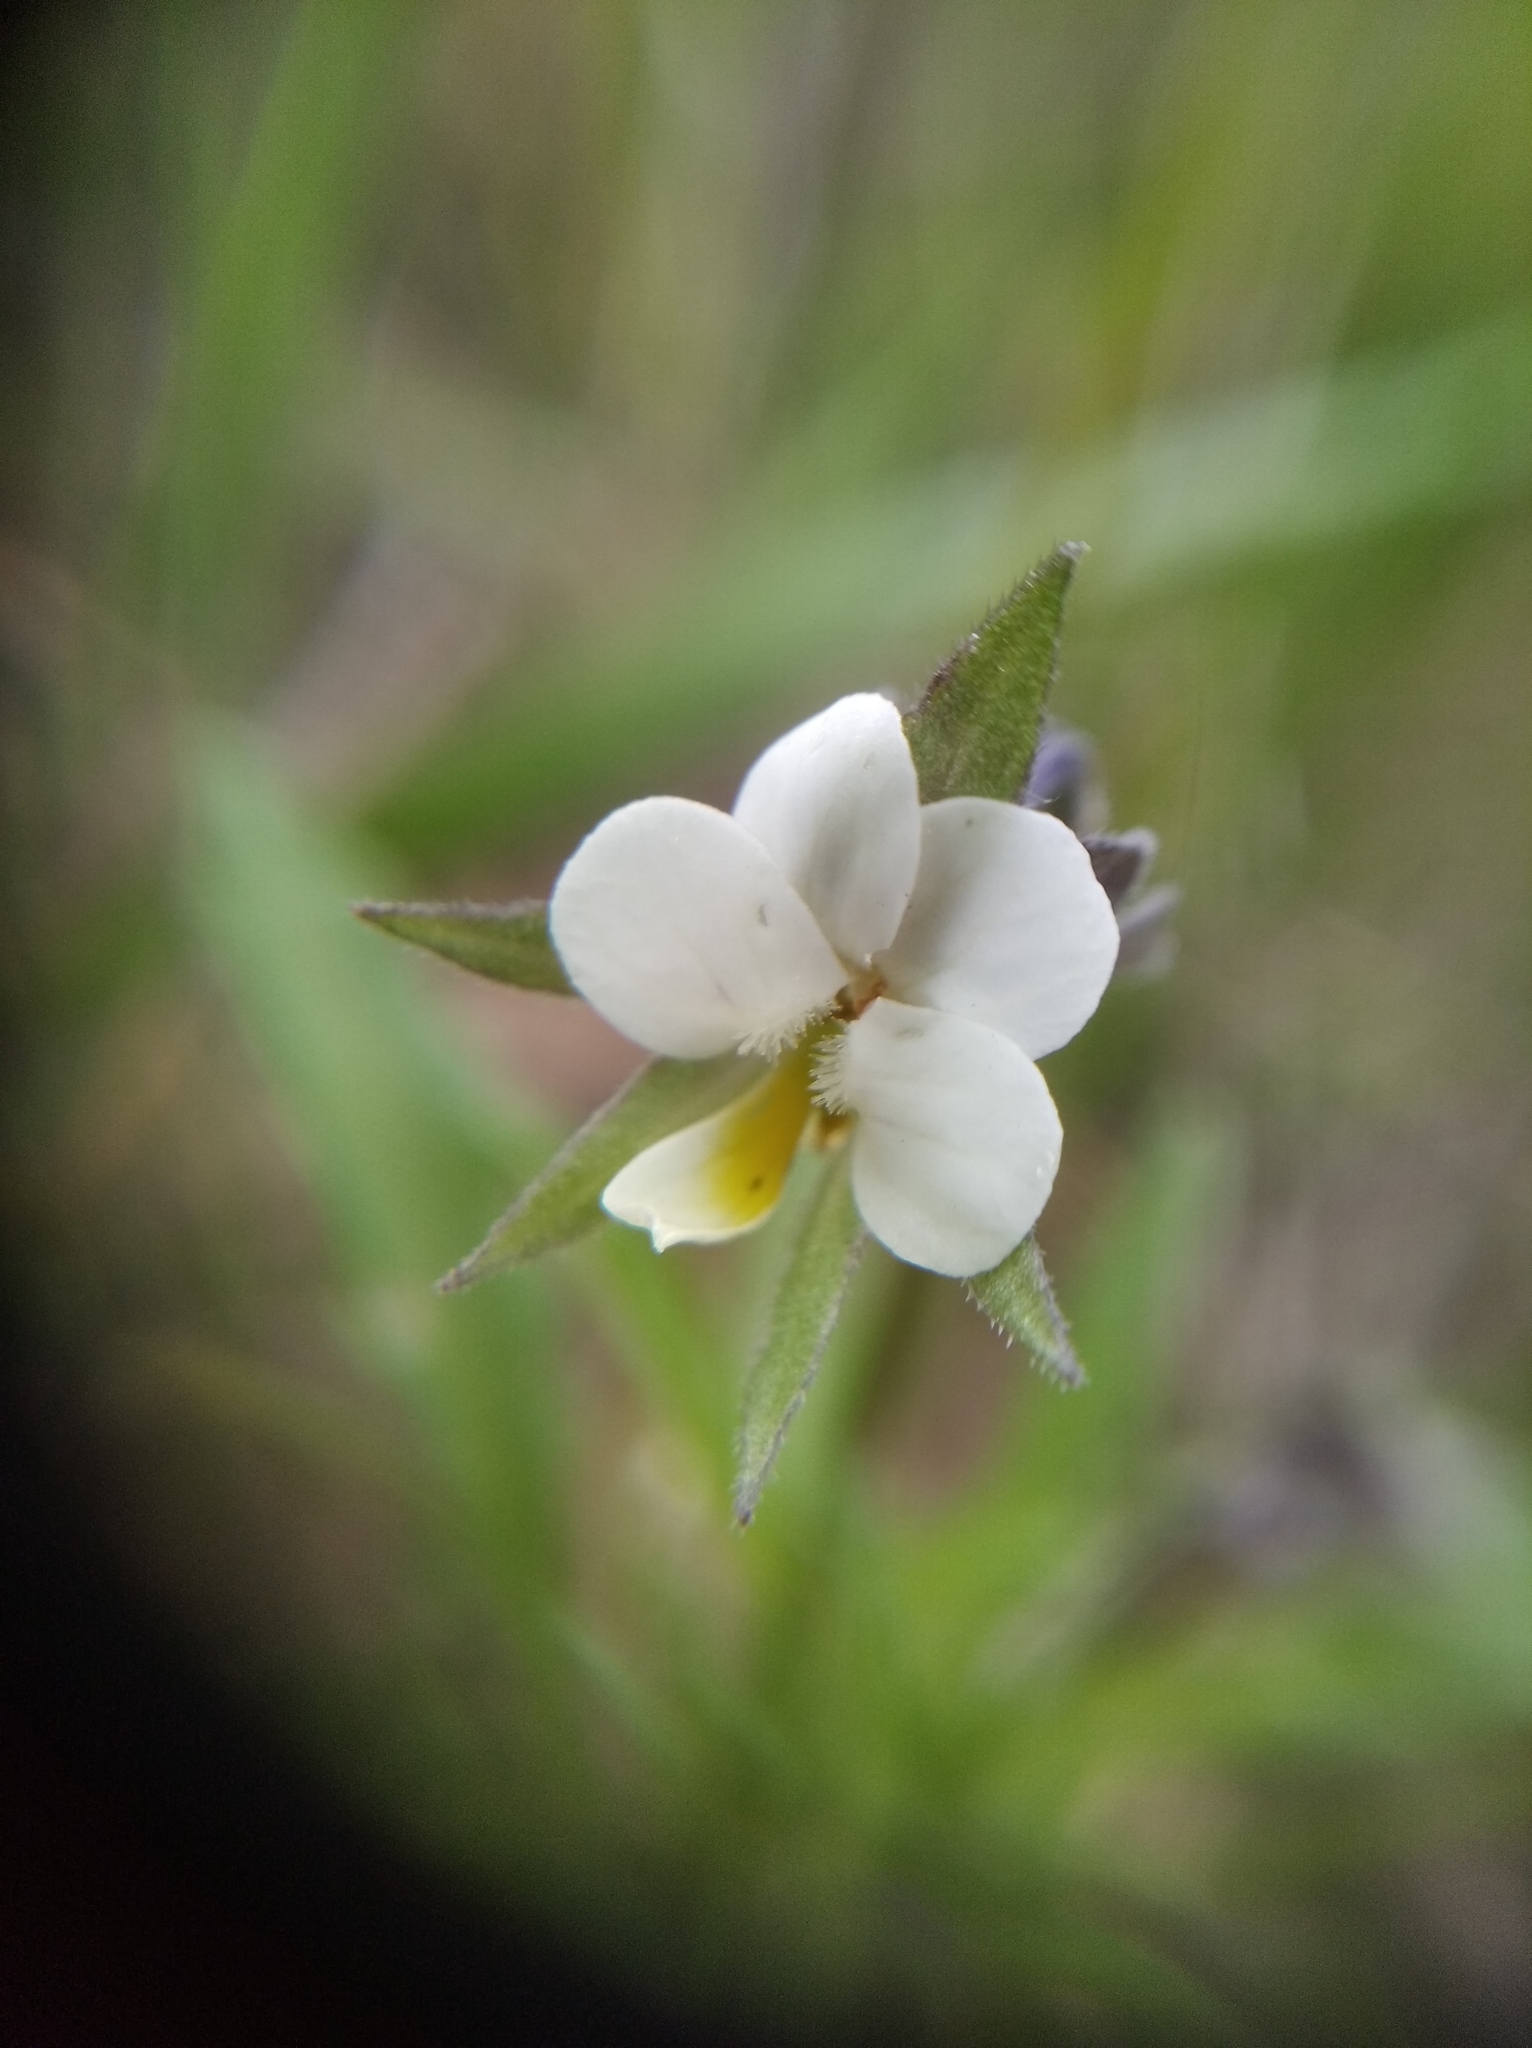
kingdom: Plantae
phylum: Tracheophyta
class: Magnoliopsida
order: Malpighiales
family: Violaceae
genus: Viola
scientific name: Viola arvensis
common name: Field pansy
